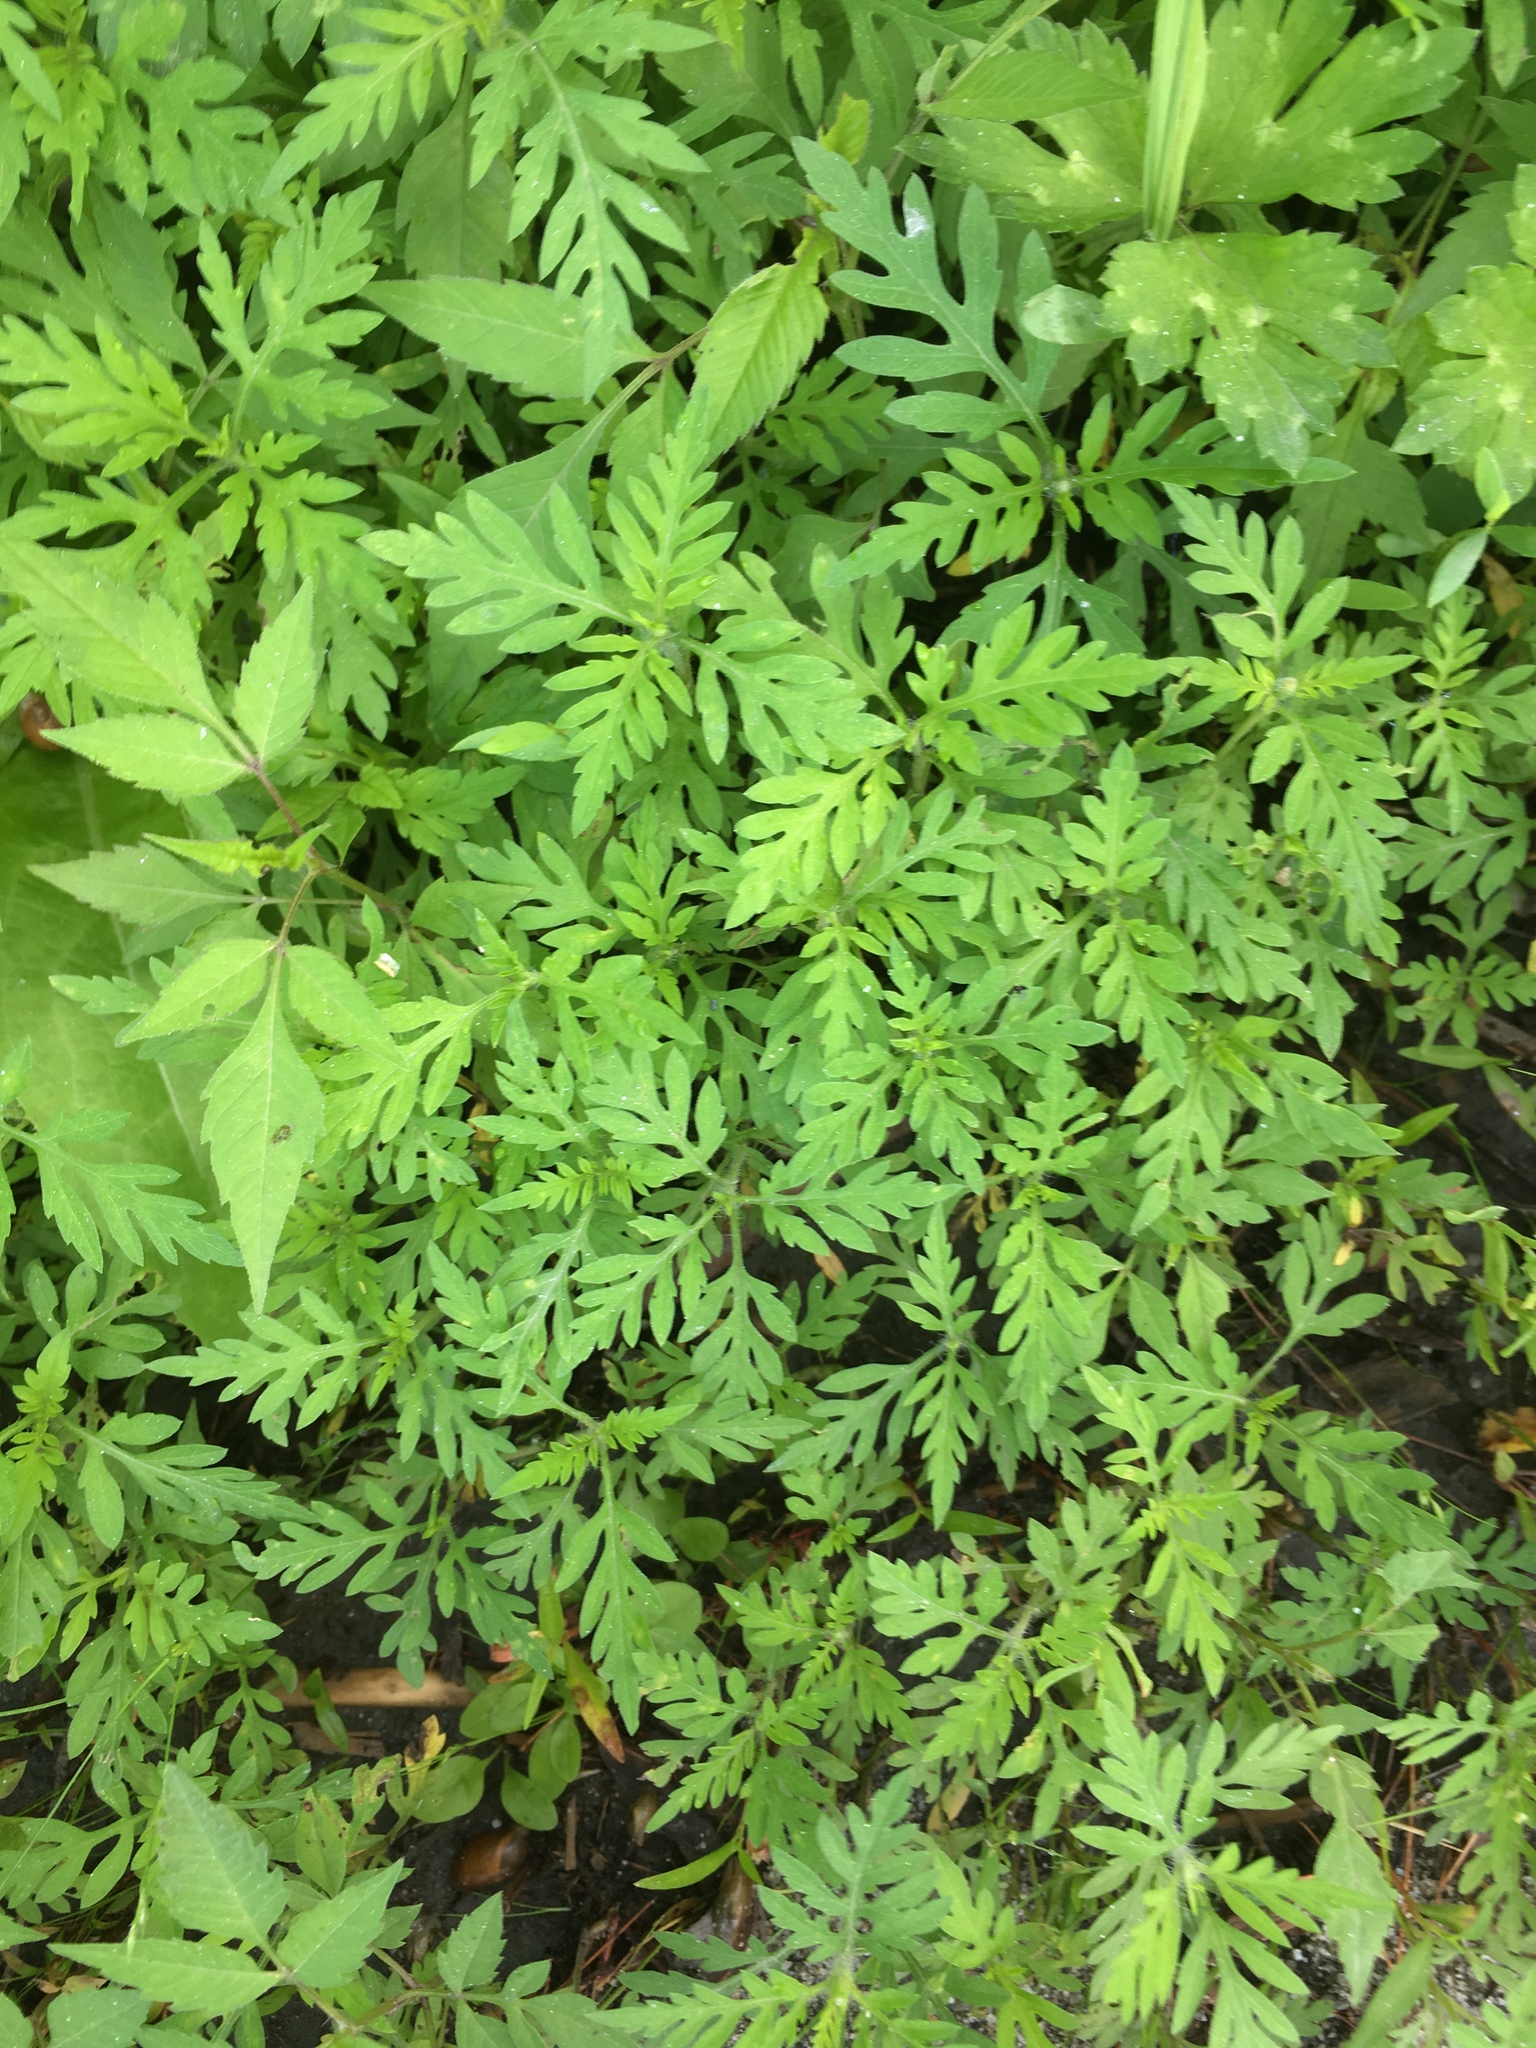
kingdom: Plantae
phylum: Tracheophyta
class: Magnoliopsida
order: Asterales
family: Asteraceae
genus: Ambrosia
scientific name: Ambrosia artemisiifolia
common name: Annual ragweed
